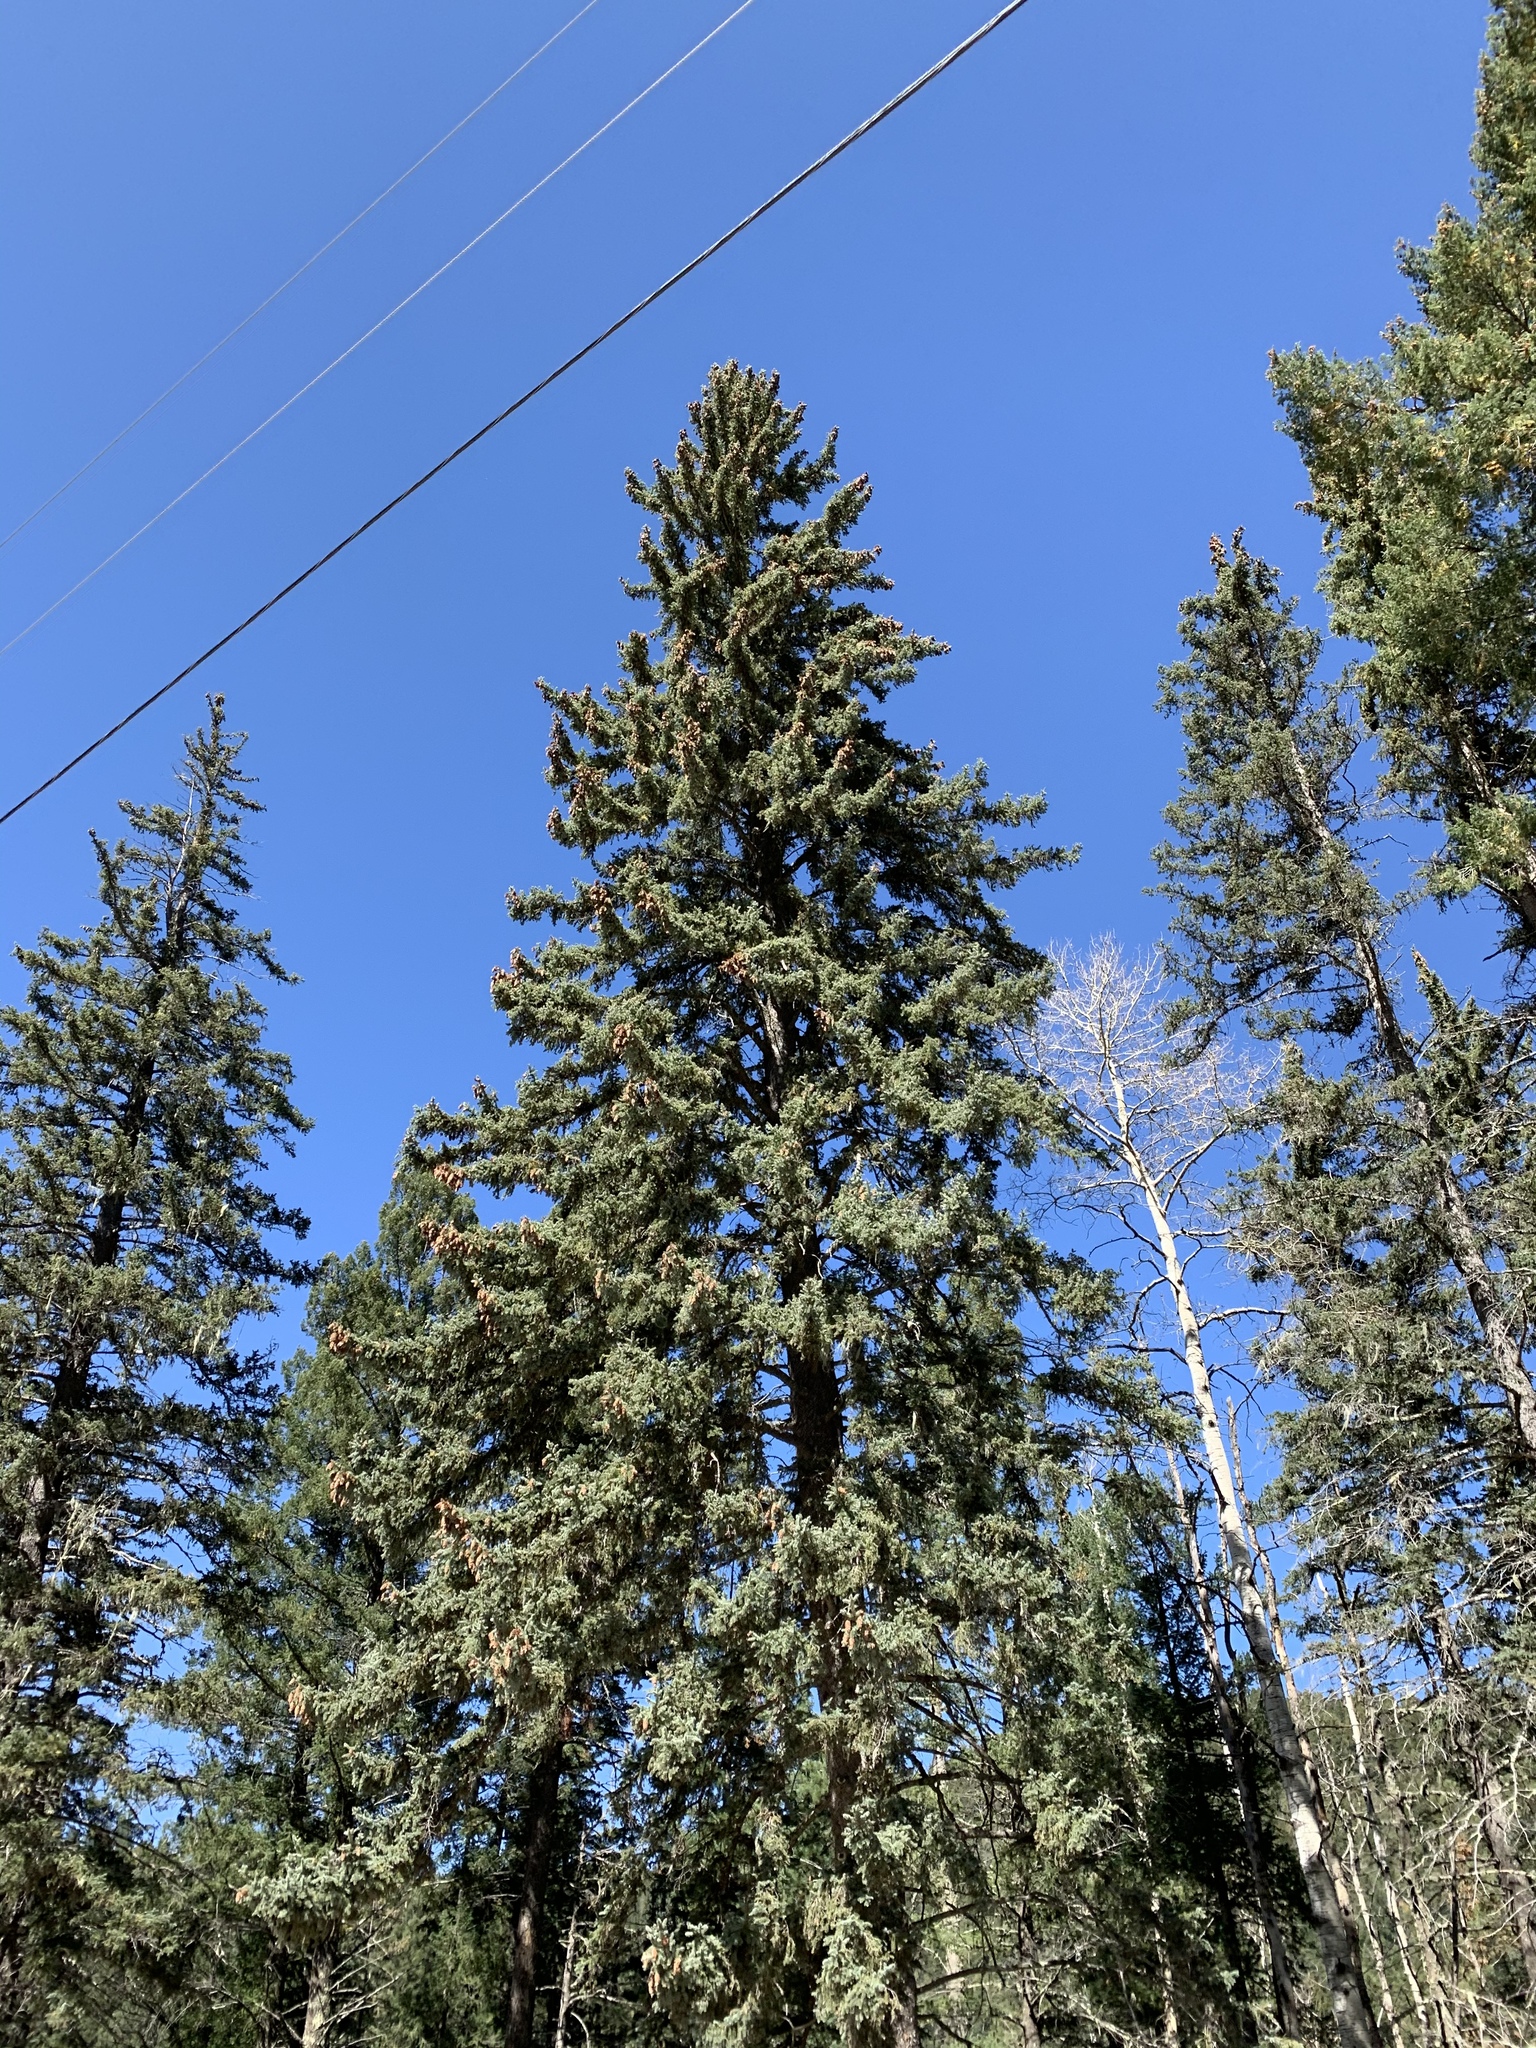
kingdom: Plantae
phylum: Tracheophyta
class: Pinopsida
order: Pinales
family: Pinaceae
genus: Picea
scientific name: Picea engelmannii
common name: Engelmann spruce
